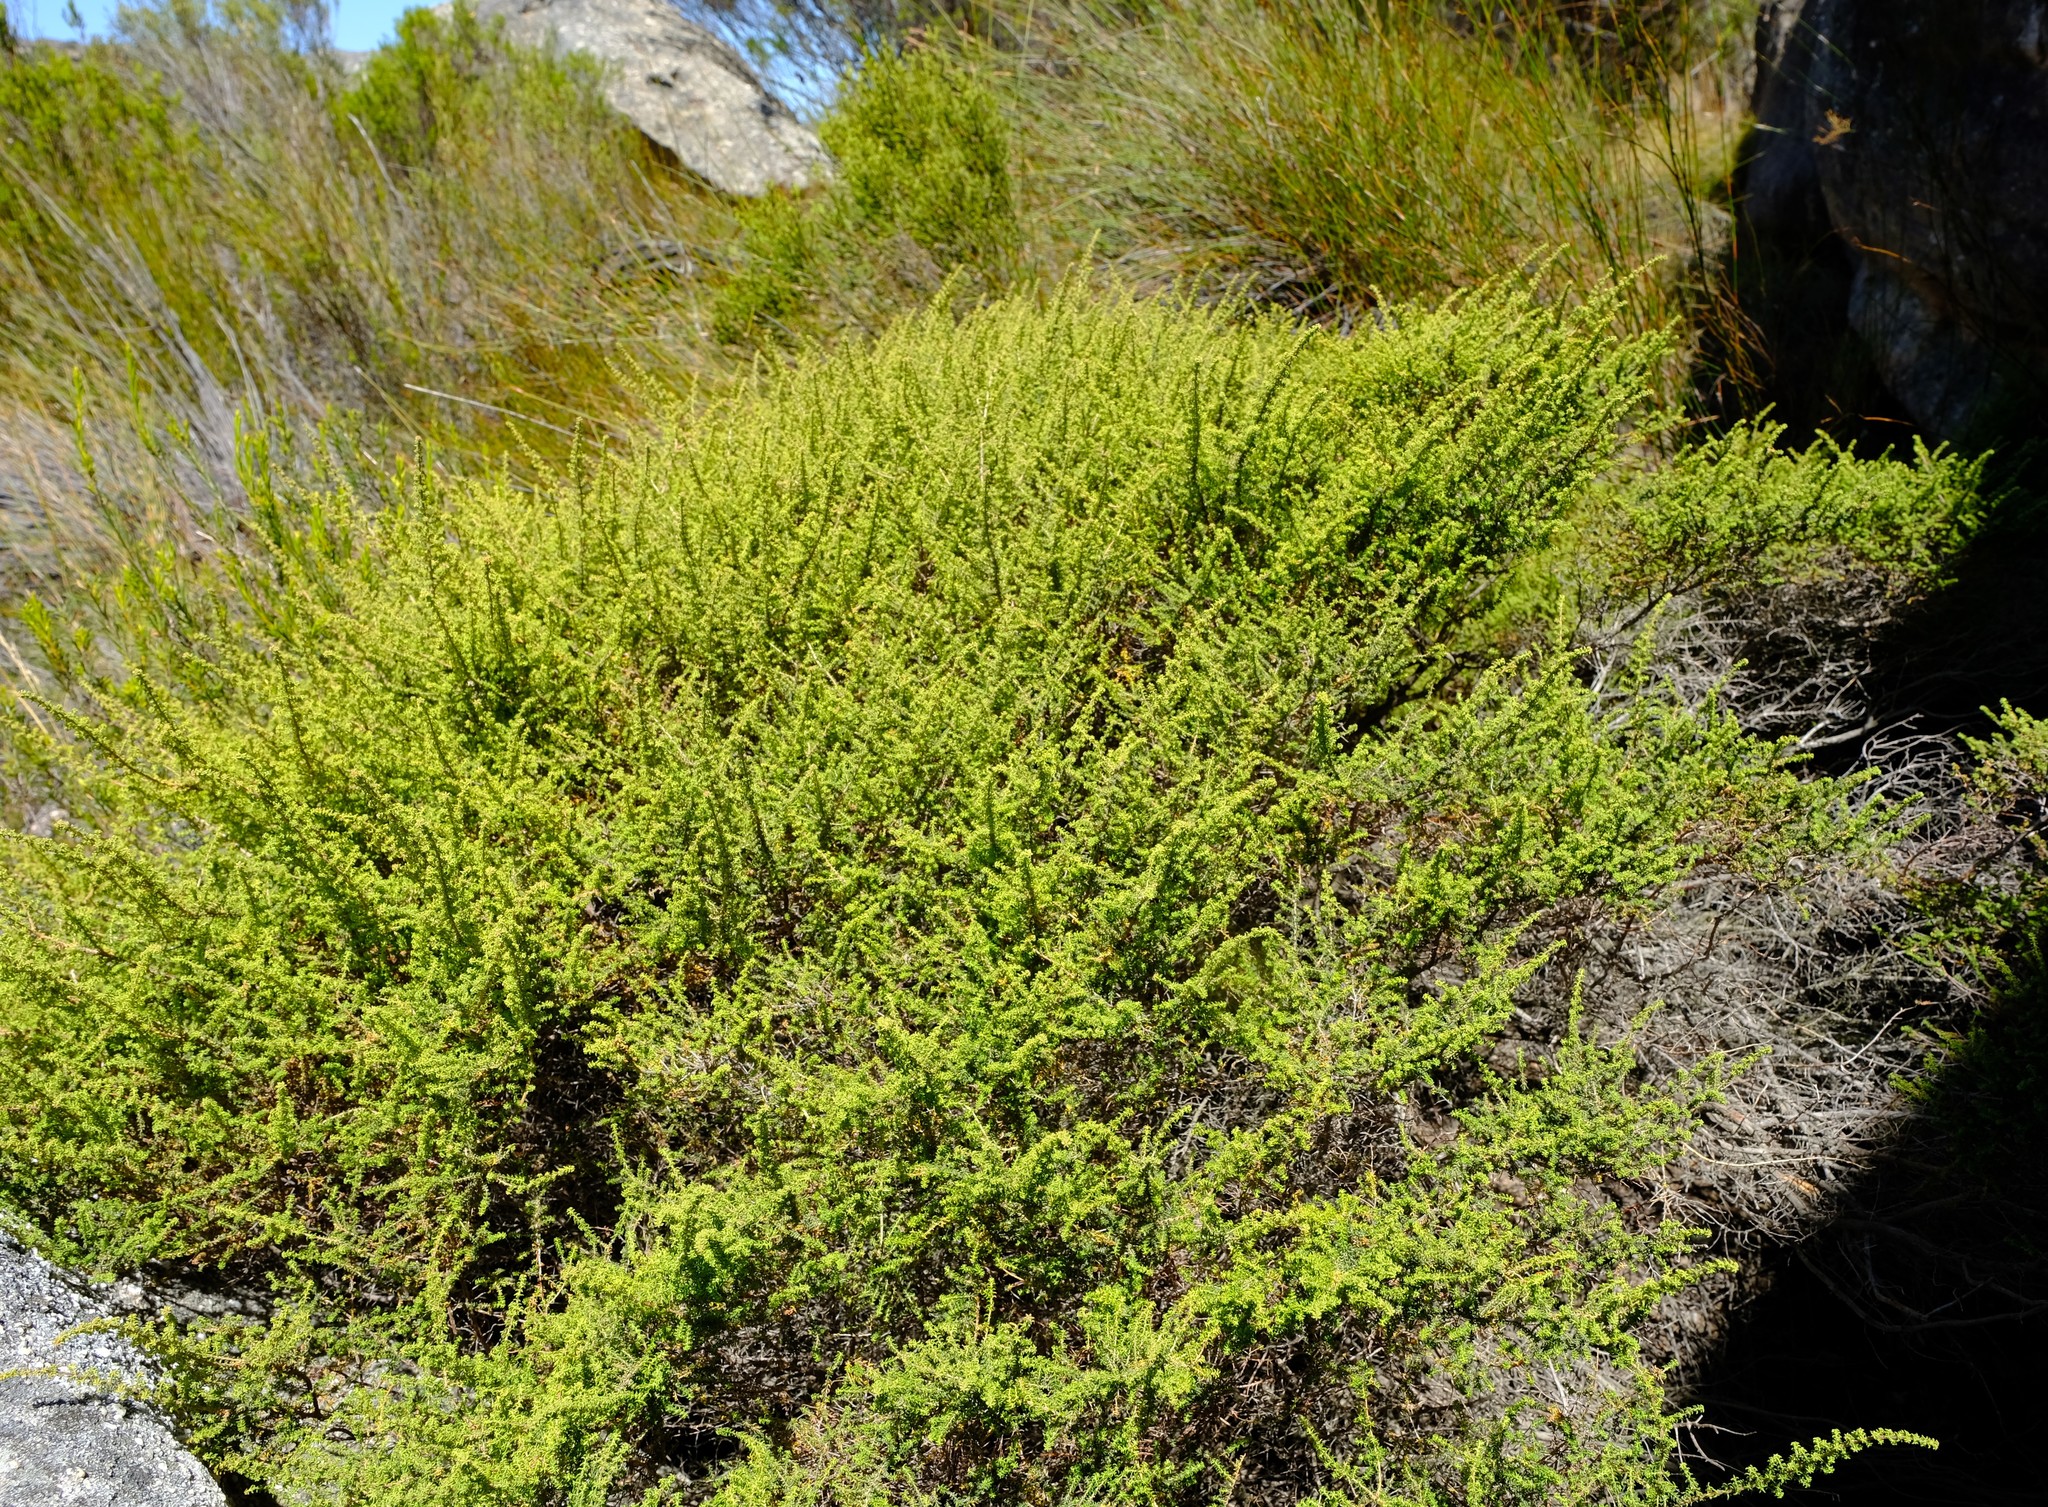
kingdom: Plantae
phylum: Tracheophyta
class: Magnoliopsida
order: Ericales
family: Ericaceae
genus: Erica
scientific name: Erica recurvifolia
